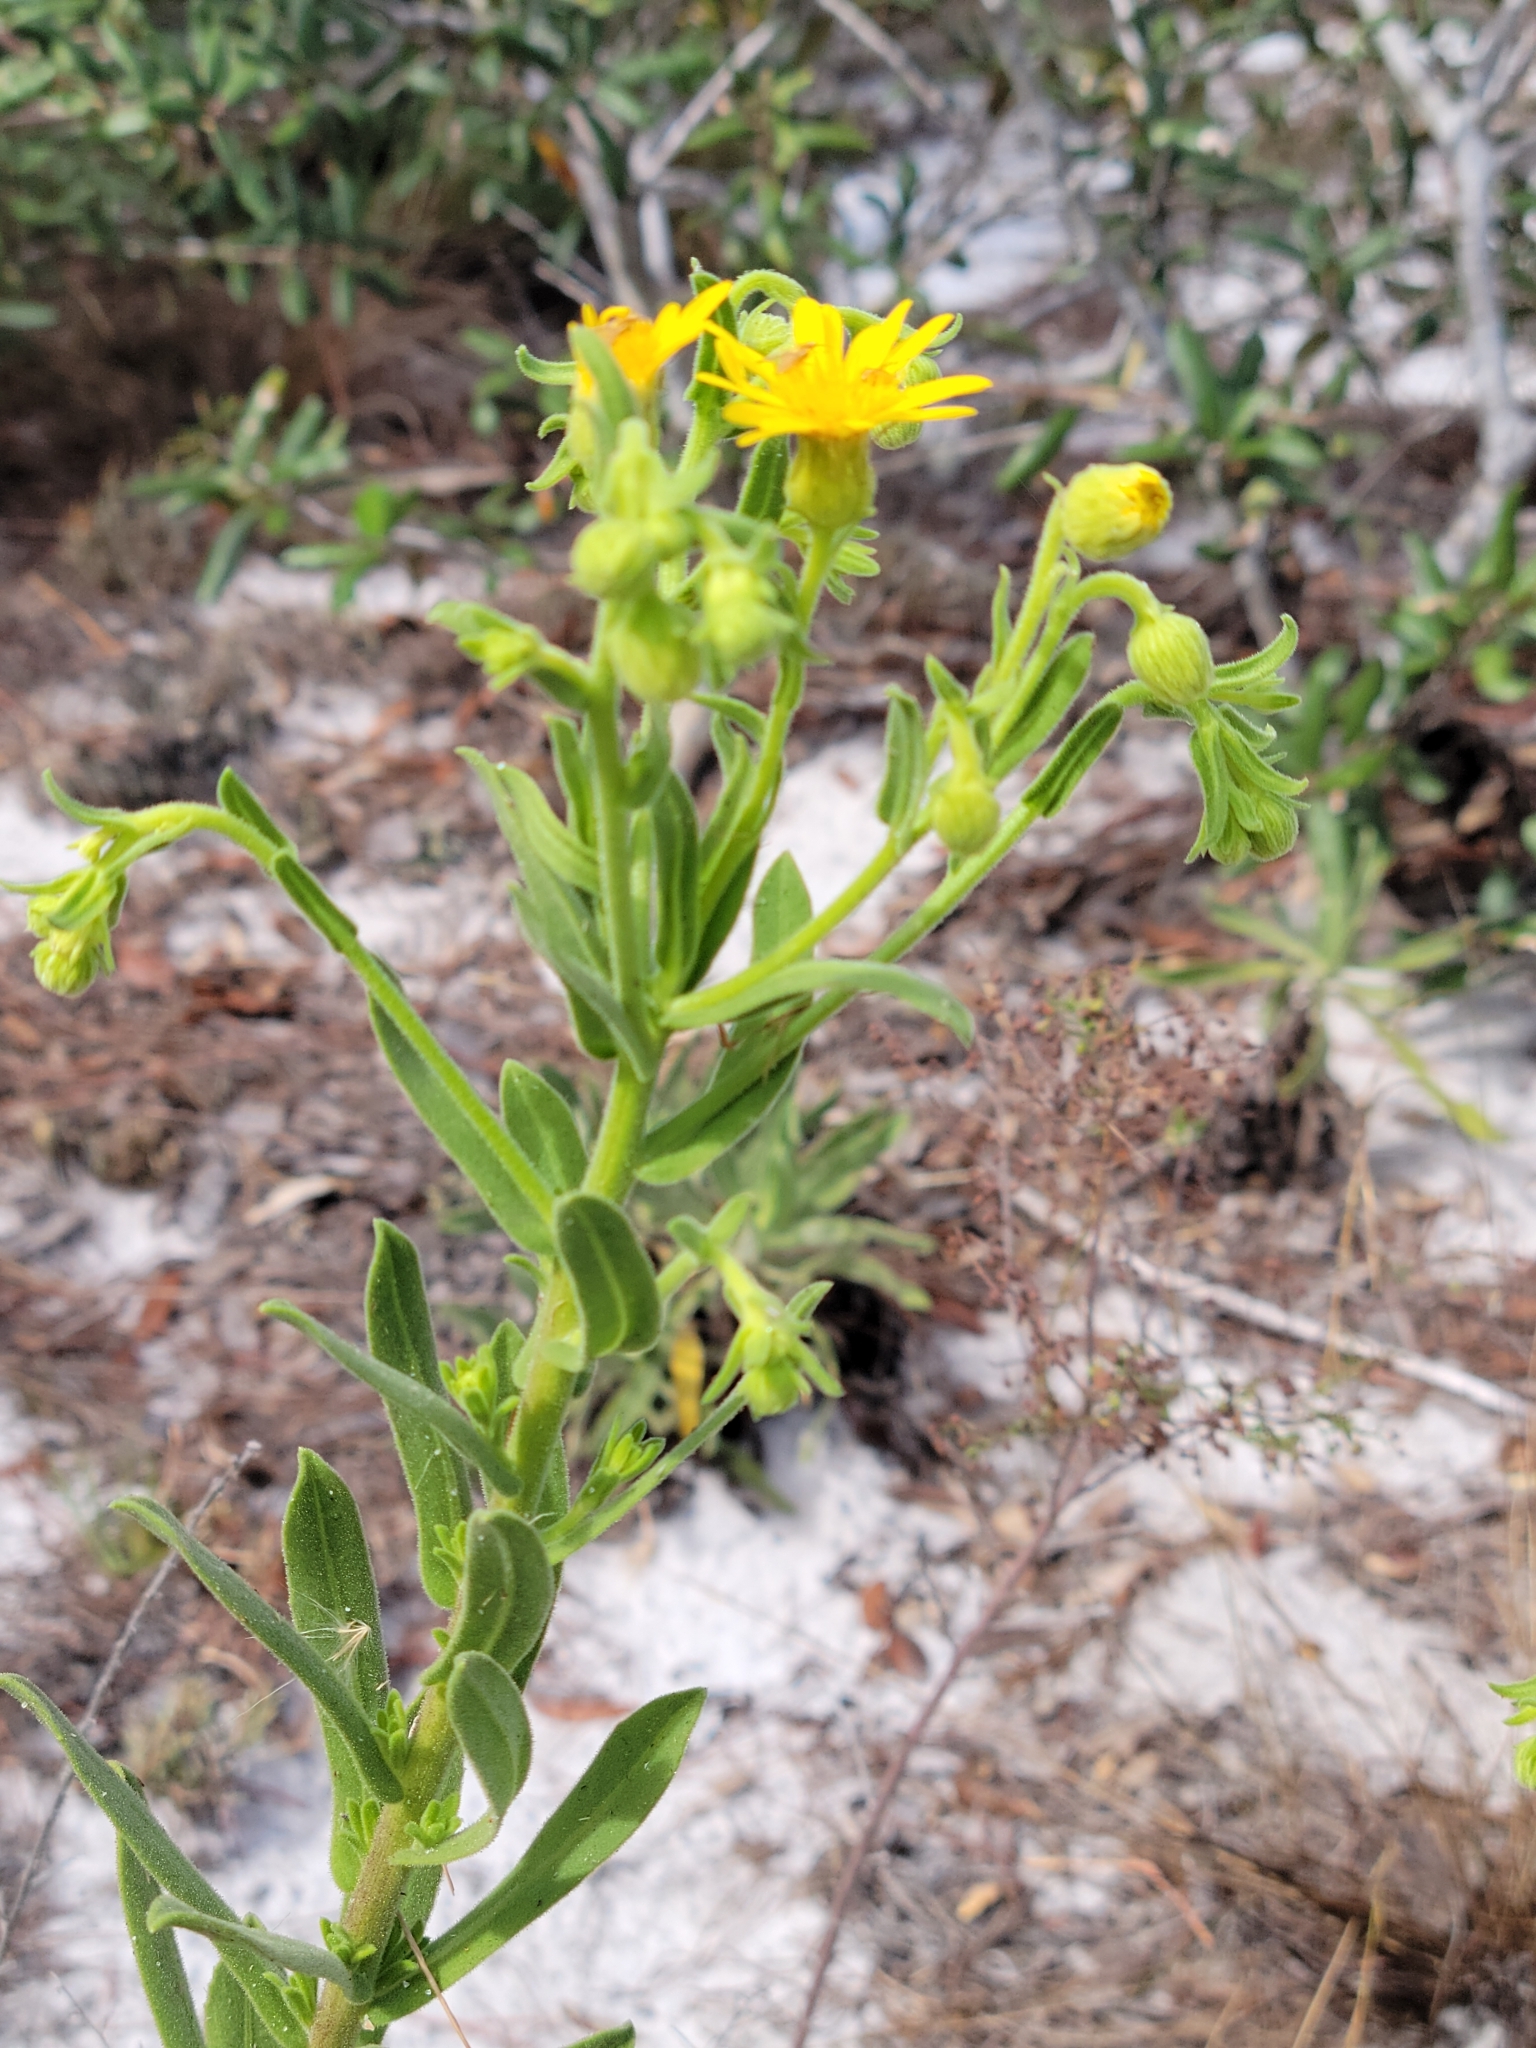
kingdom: Plantae
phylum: Tracheophyta
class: Magnoliopsida
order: Asterales
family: Asteraceae
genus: Chrysopsis
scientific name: Chrysopsis delaneyi
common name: Delaney's goldenaster
